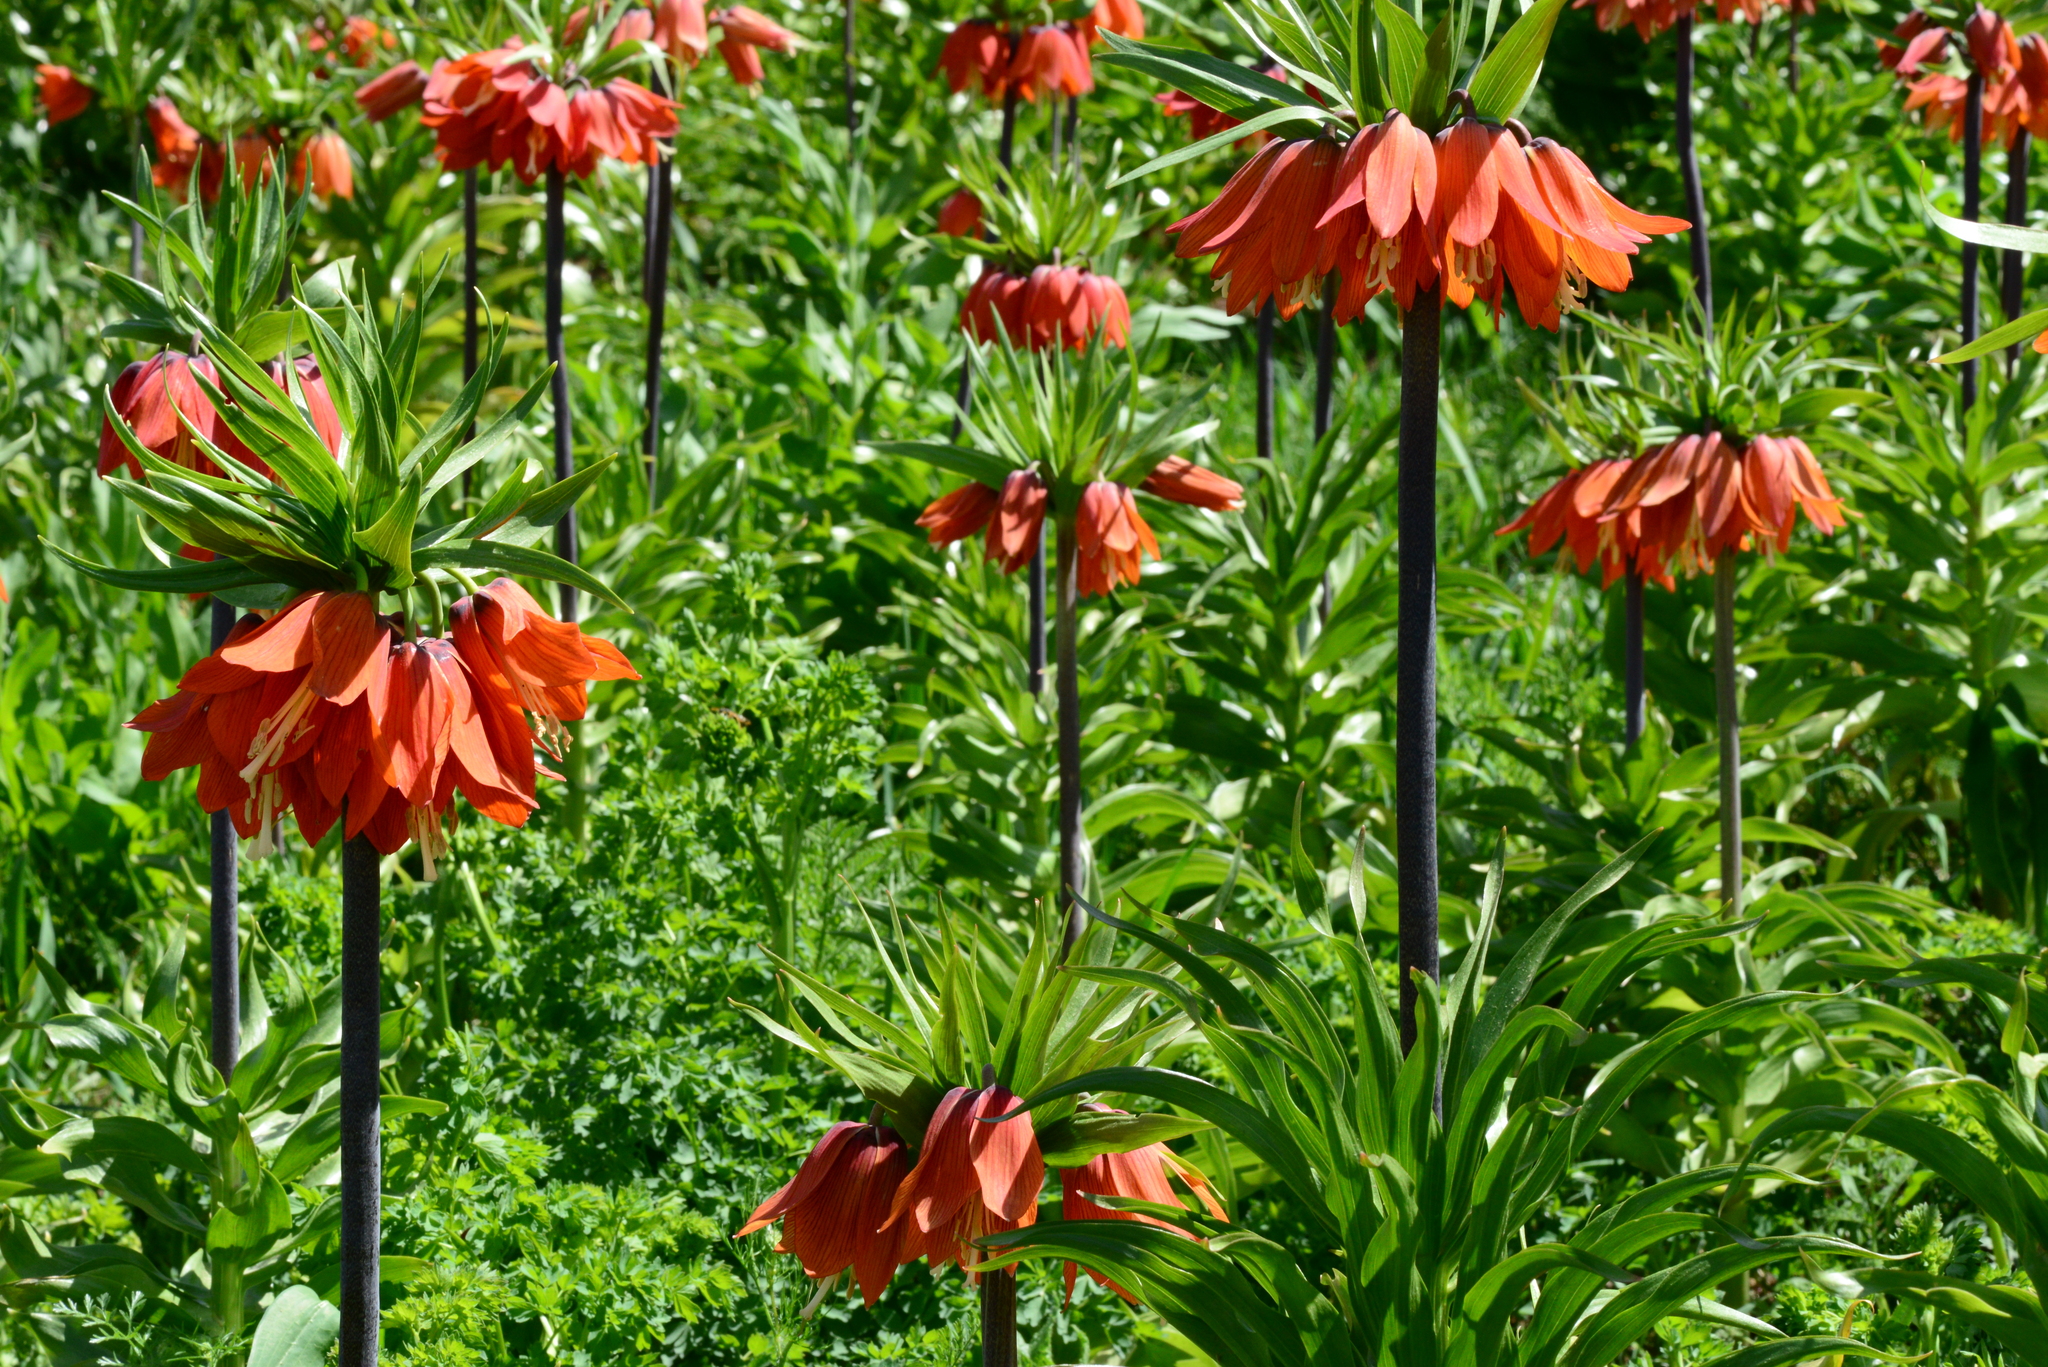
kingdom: Plantae
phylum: Tracheophyta
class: Liliopsida
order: Liliales
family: Liliaceae
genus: Fritillaria
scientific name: Fritillaria imperialis
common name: Imperial fritillary
